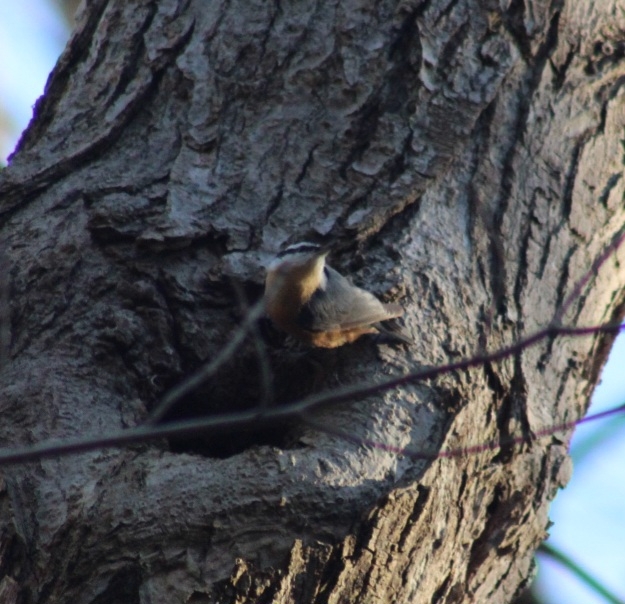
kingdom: Animalia
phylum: Chordata
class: Aves
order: Passeriformes
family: Sittidae
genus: Sitta
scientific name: Sitta canadensis
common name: Red-breasted nuthatch
